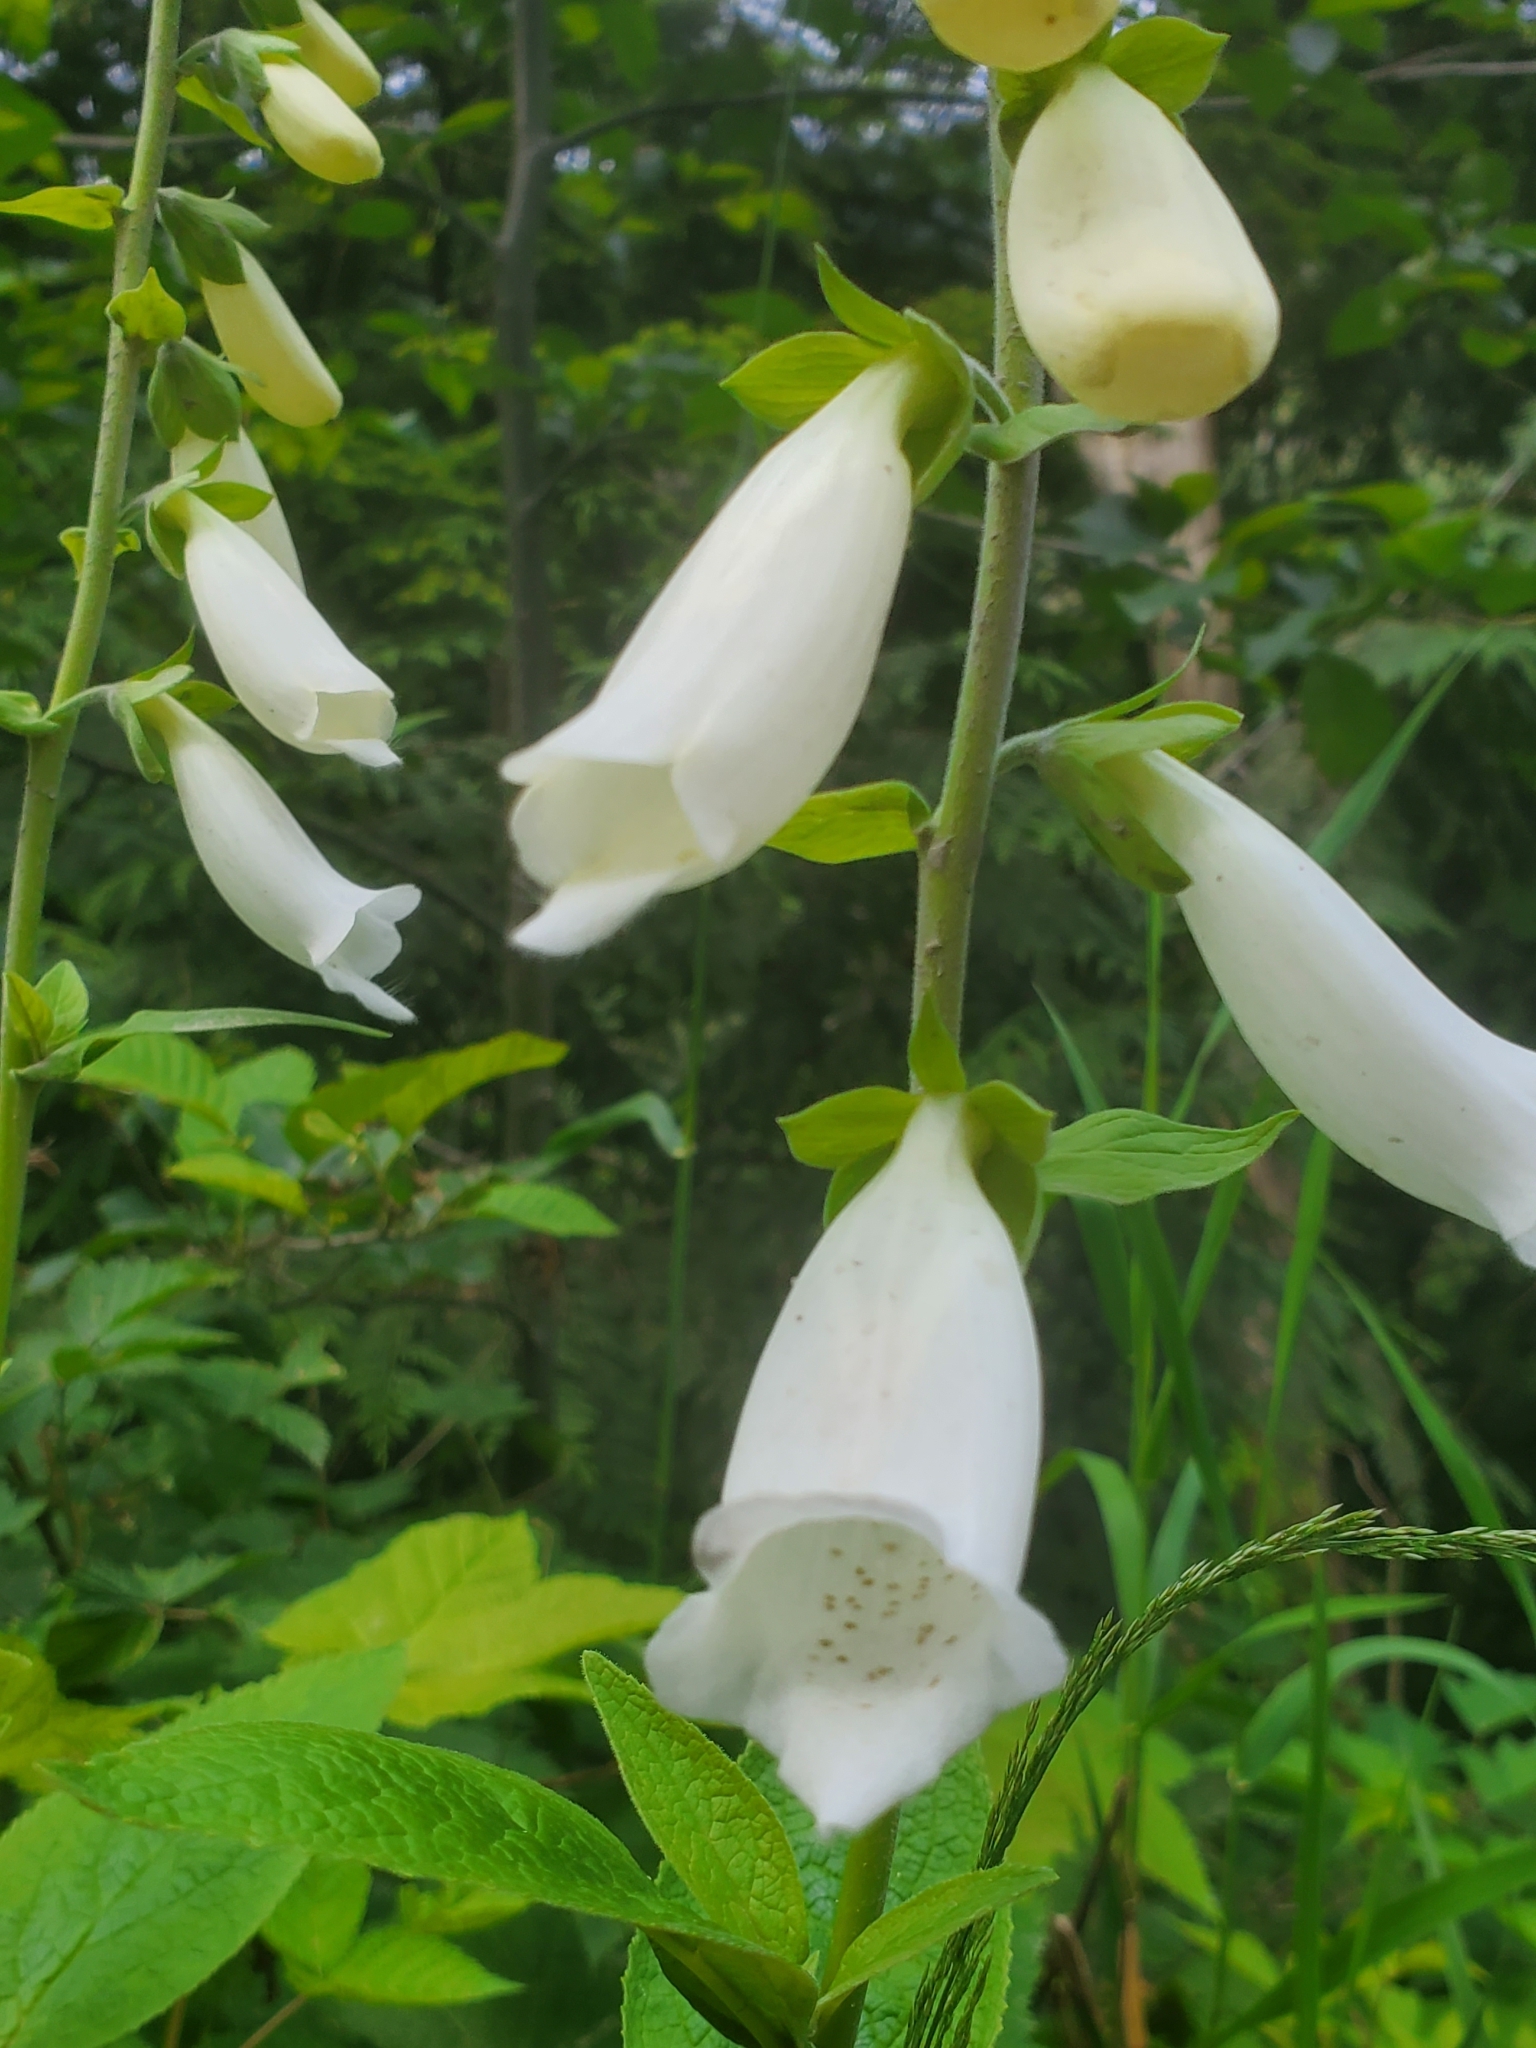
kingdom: Plantae
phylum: Tracheophyta
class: Magnoliopsida
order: Lamiales
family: Plantaginaceae
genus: Digitalis
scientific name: Digitalis purpurea
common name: Foxglove
